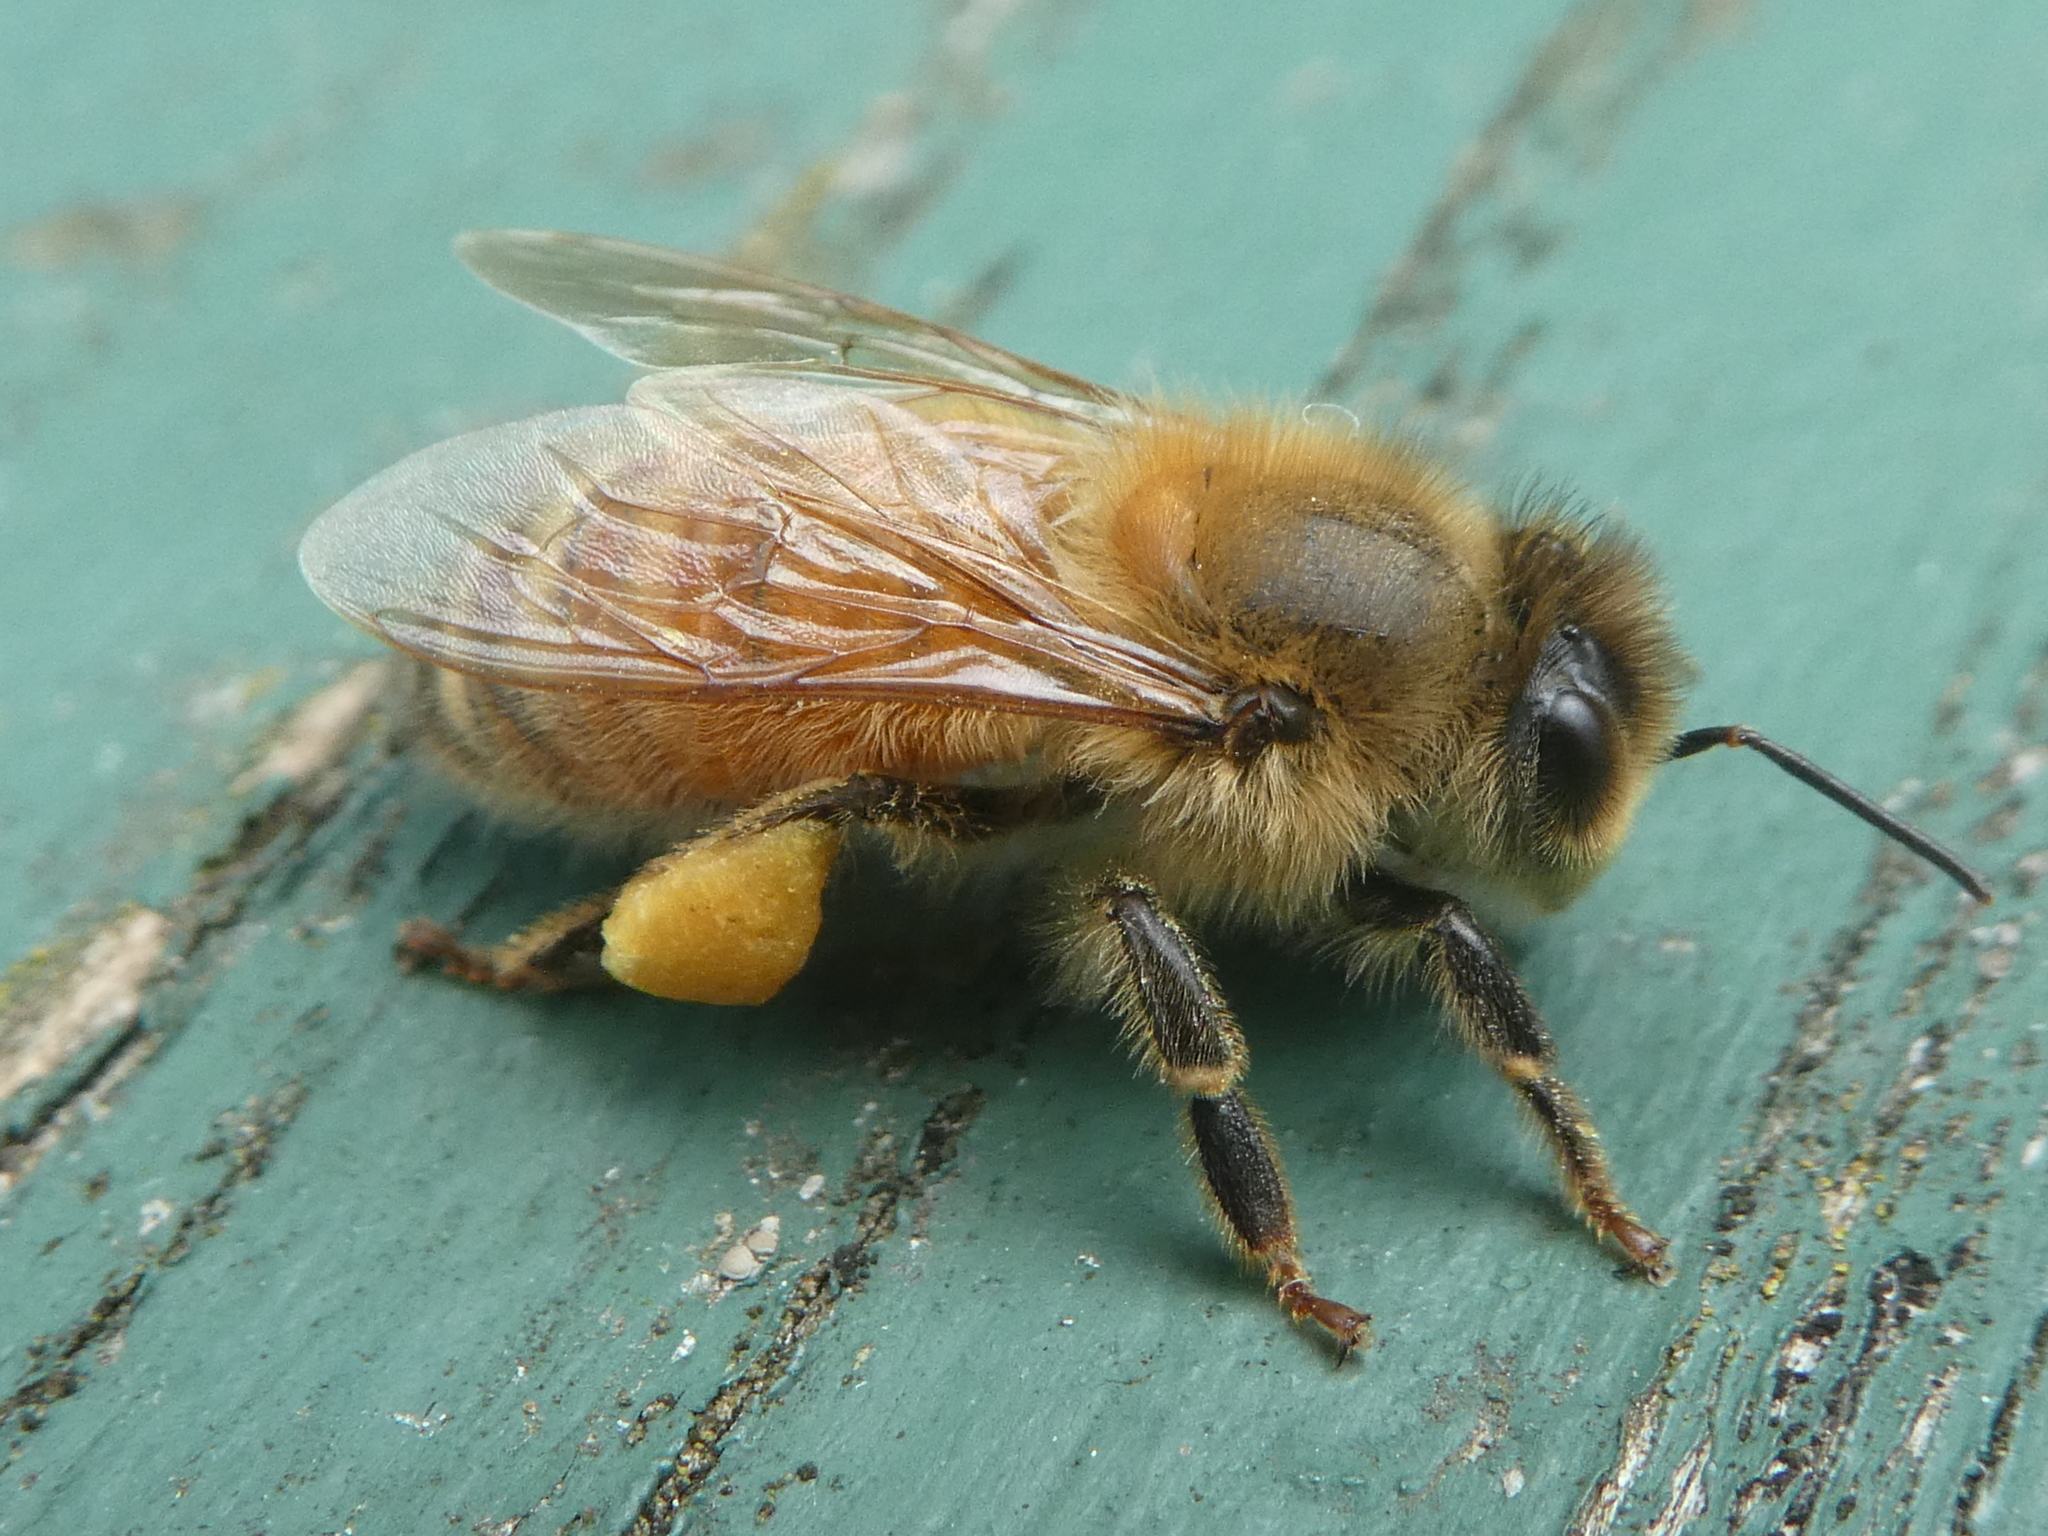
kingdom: Animalia
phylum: Arthropoda
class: Insecta
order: Hymenoptera
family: Apidae
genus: Apis
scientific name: Apis mellifera
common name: Honey bee
